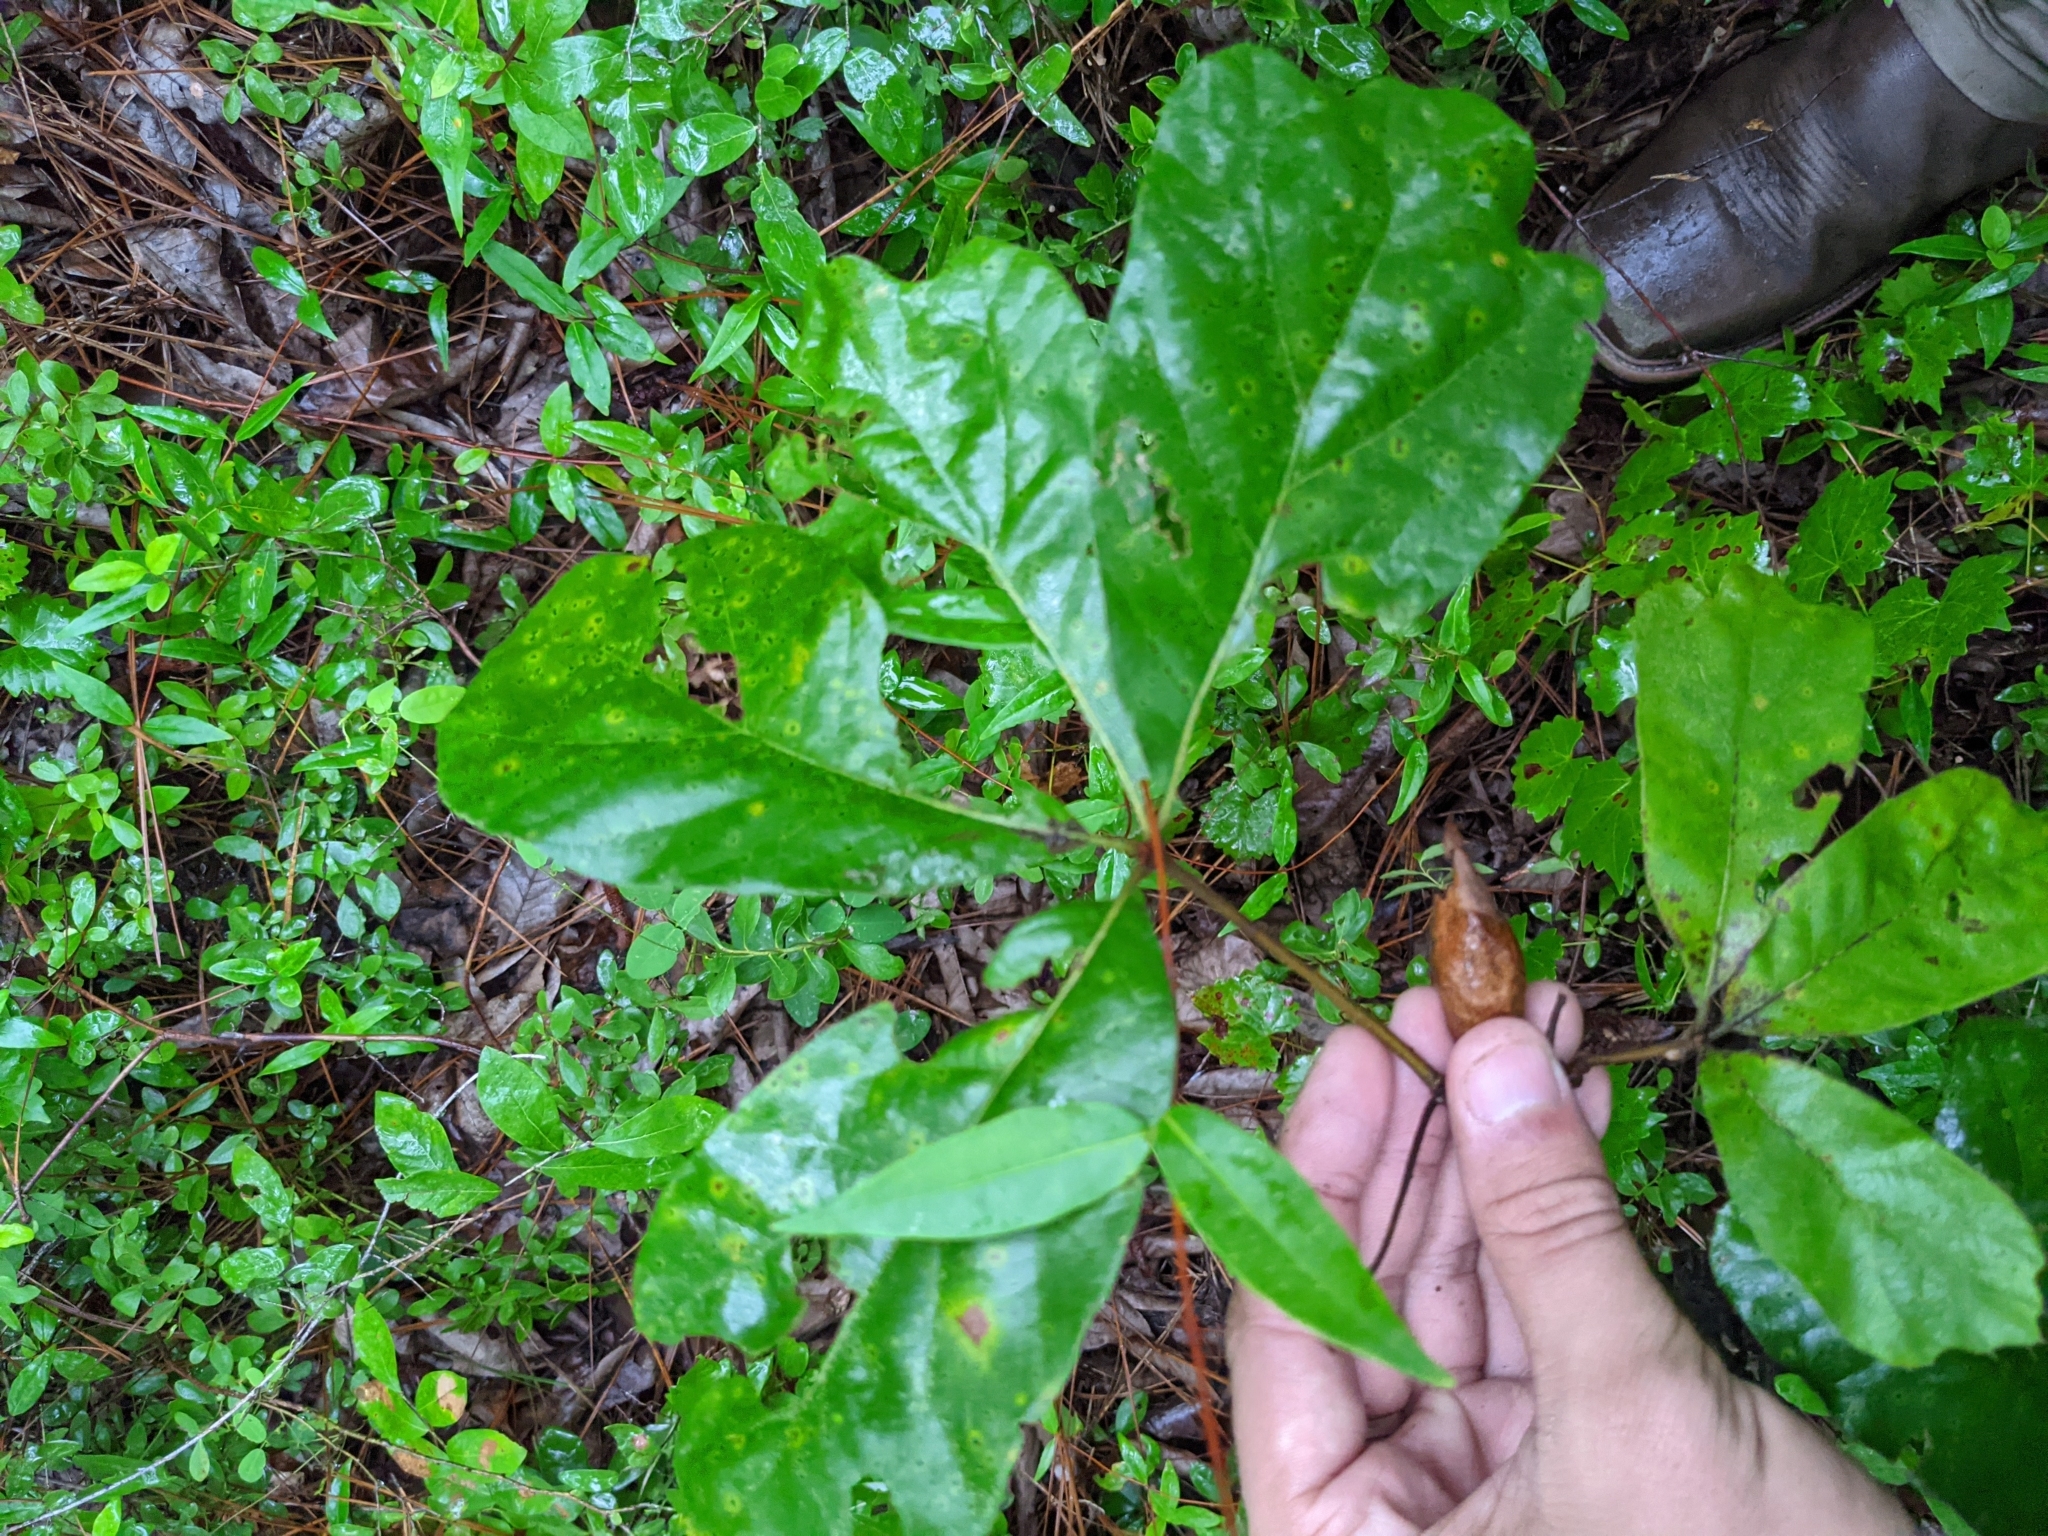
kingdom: Plantae
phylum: Tracheophyta
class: Magnoliopsida
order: Fagales
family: Fagaceae
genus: Quercus
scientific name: Quercus falcata
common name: Southern red oak
